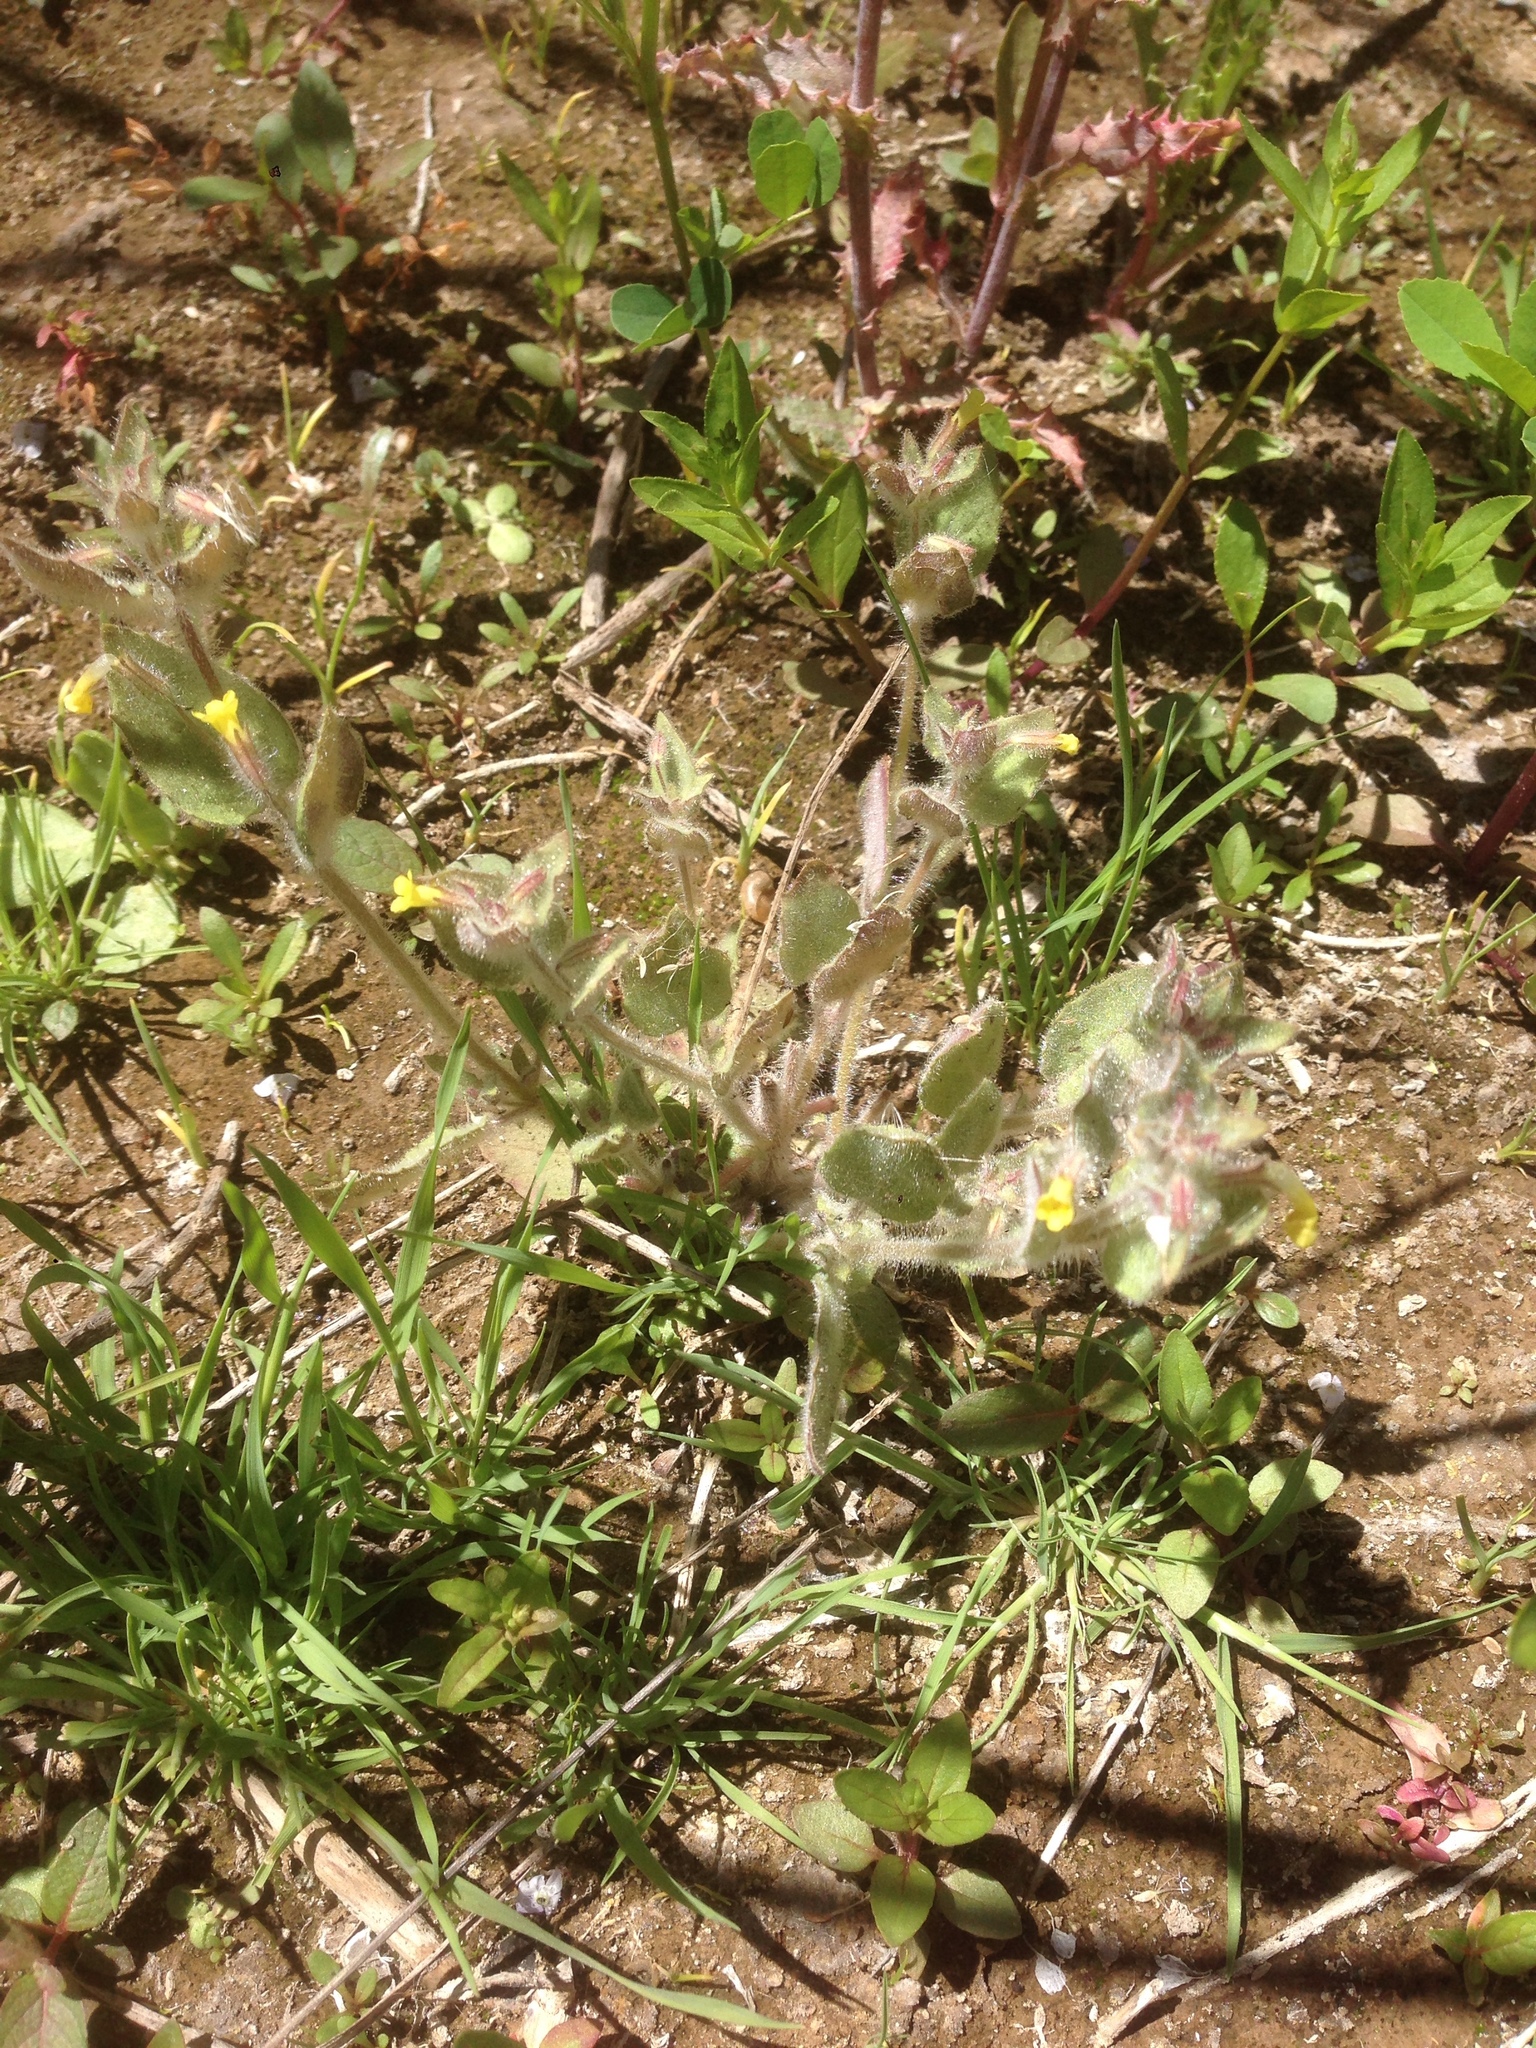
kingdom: Plantae
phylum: Tracheophyta
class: Magnoliopsida
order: Lamiales
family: Phrymaceae
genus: Erythranthe
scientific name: Erythranthe floribunda
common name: Floriferous monkeyflower
